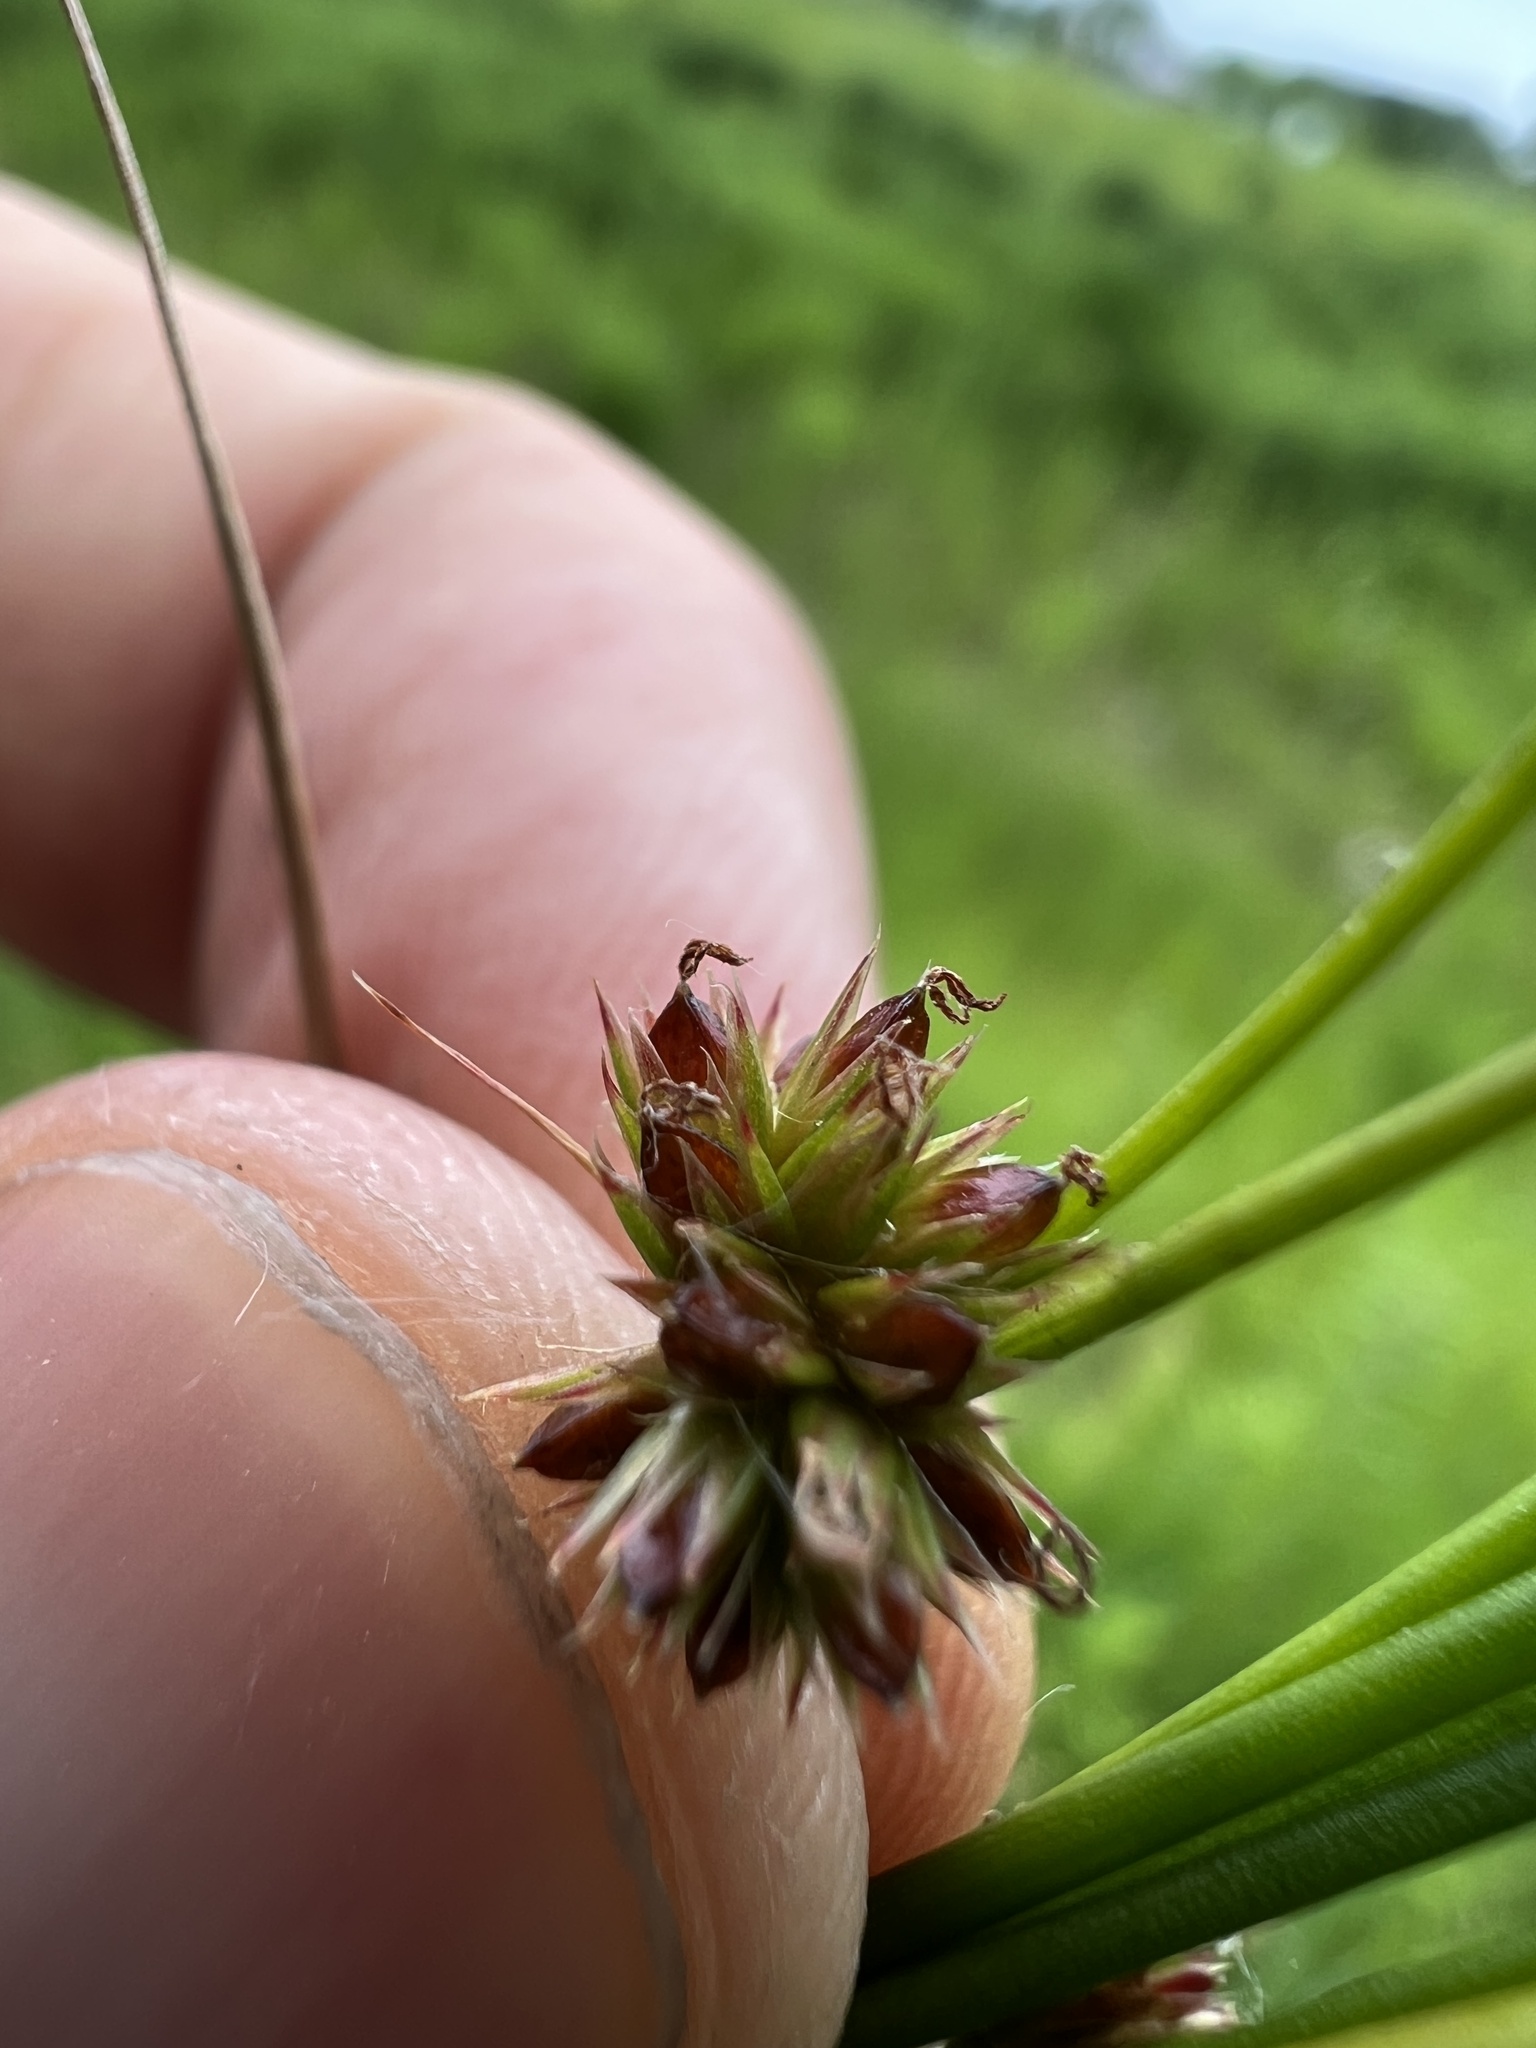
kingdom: Plantae
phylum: Tracheophyta
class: Liliopsida
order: Poales
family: Juncaceae
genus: Juncus
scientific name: Juncus acuminatus
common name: Knotty-leaved rush
